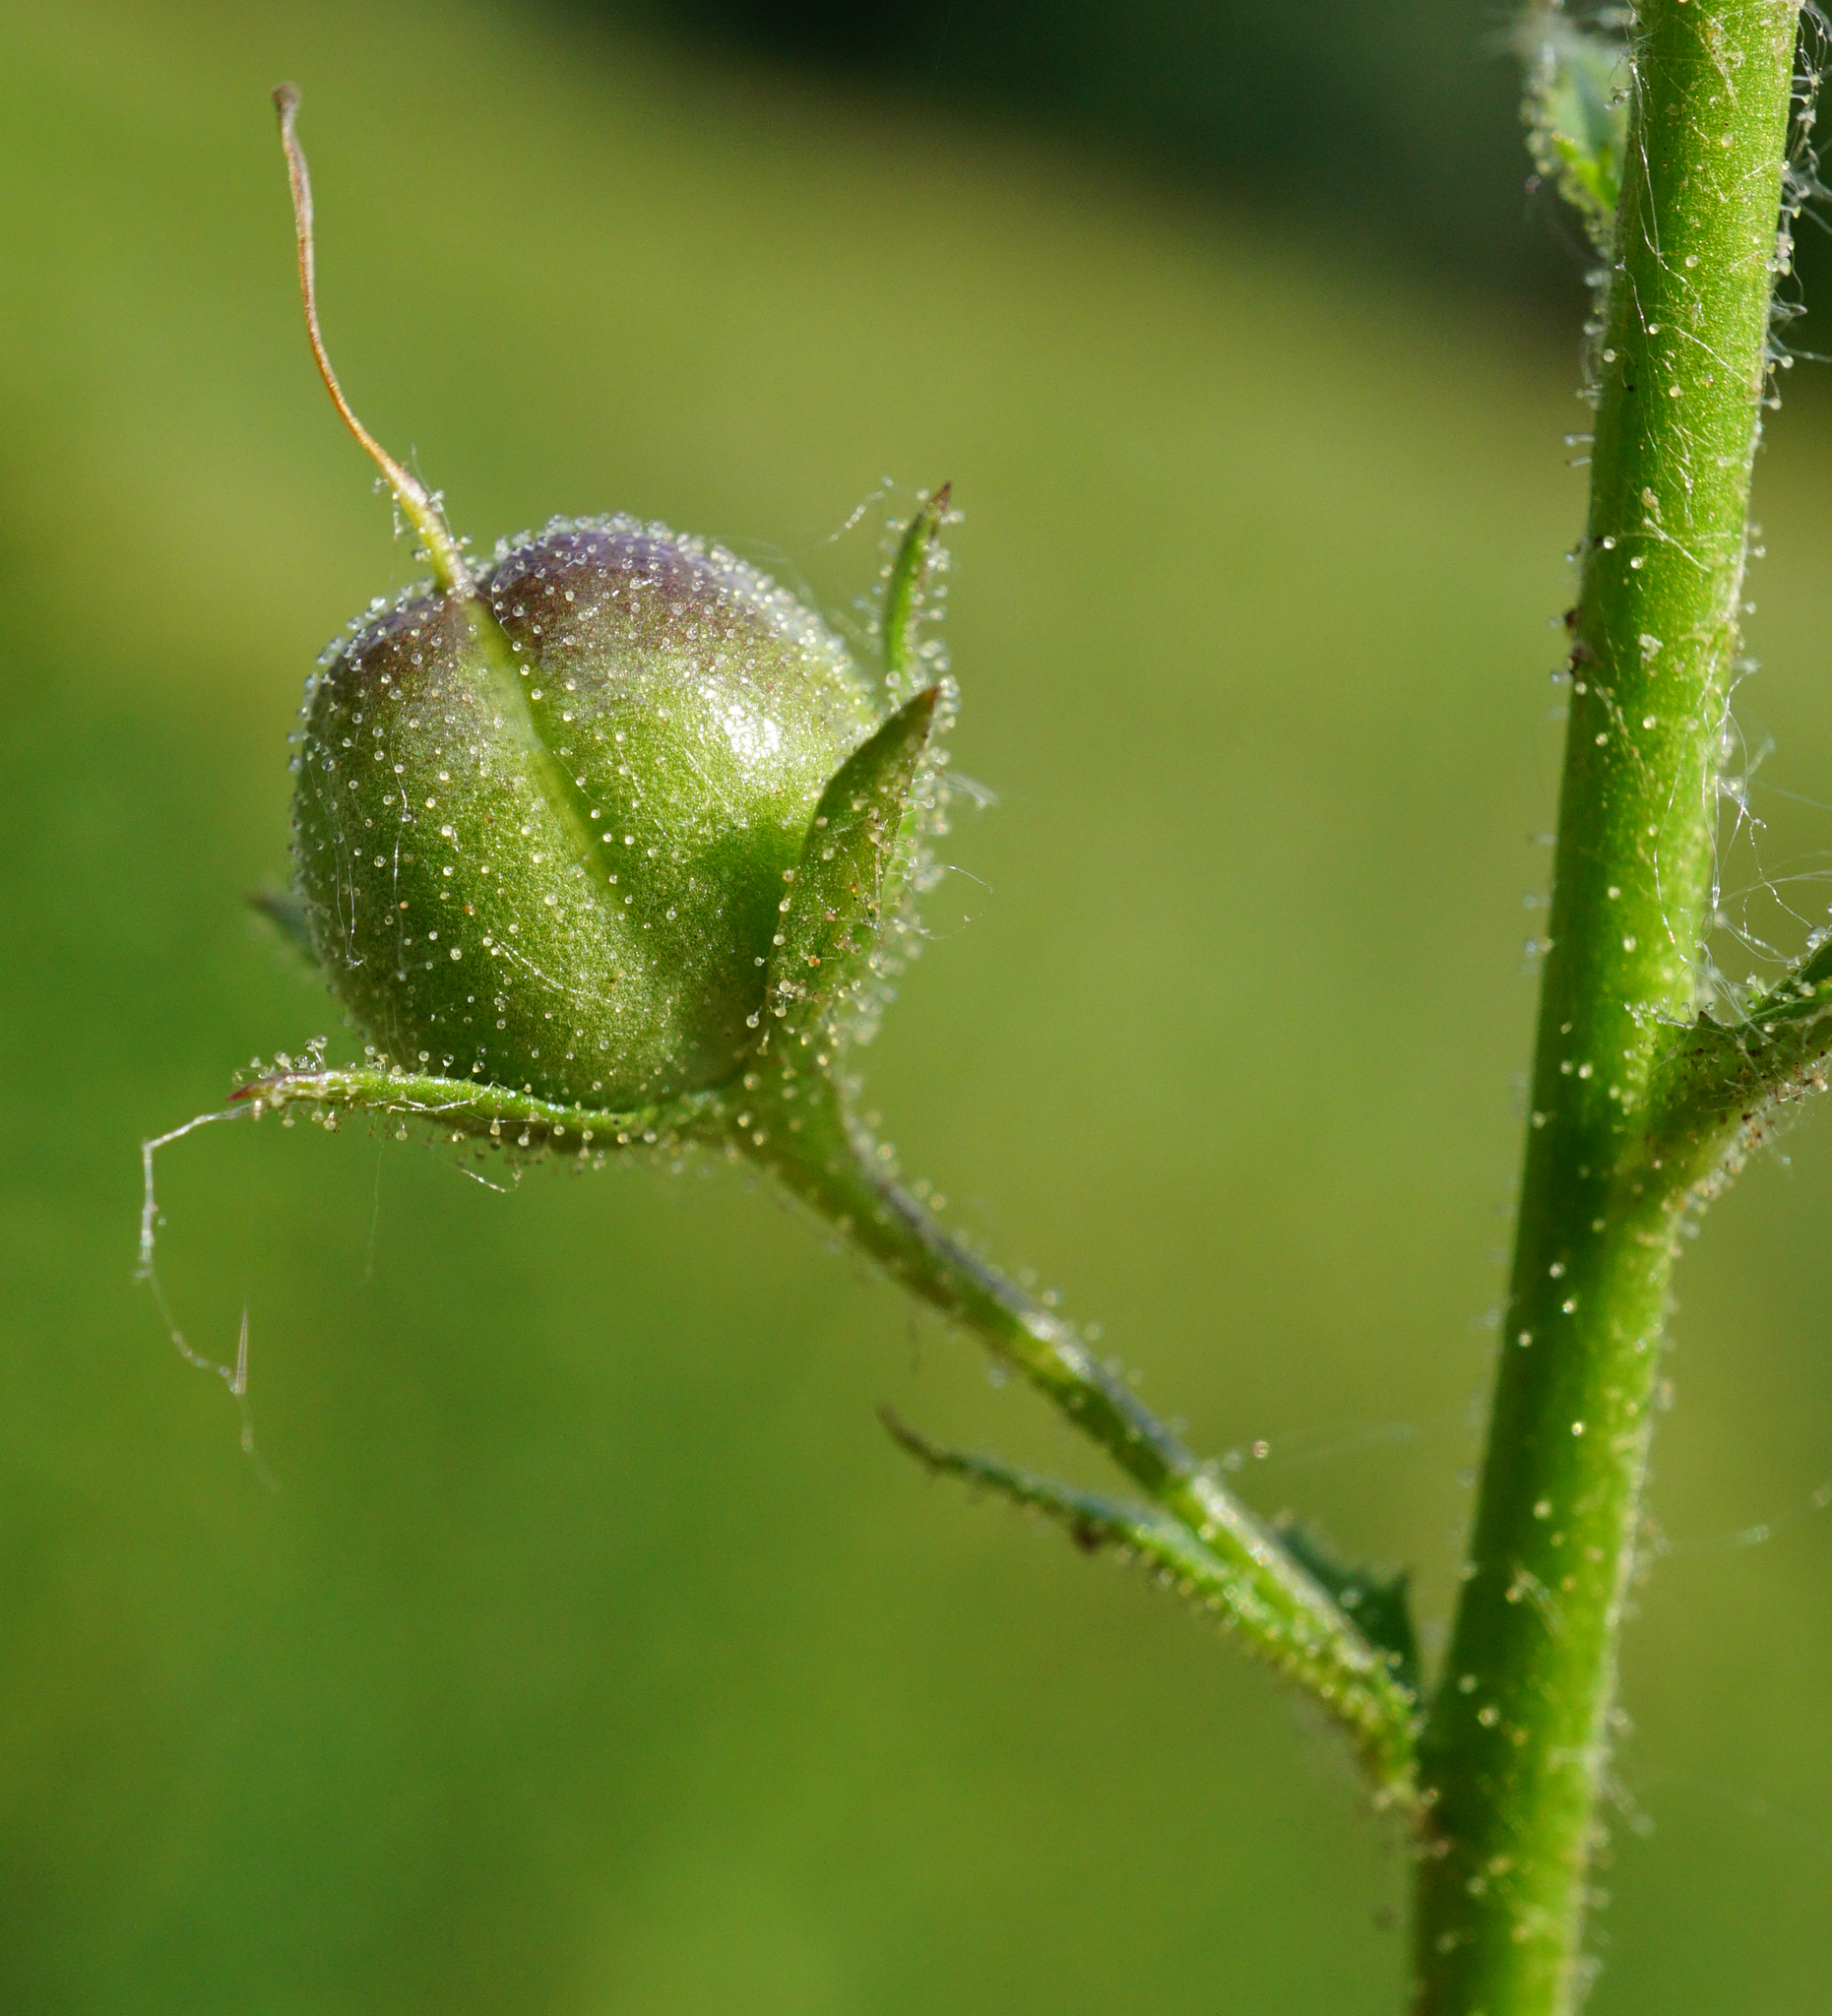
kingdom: Plantae
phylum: Tracheophyta
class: Magnoliopsida
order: Lamiales
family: Scrophulariaceae
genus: Verbascum
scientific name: Verbascum blattaria
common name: Moth mullein
